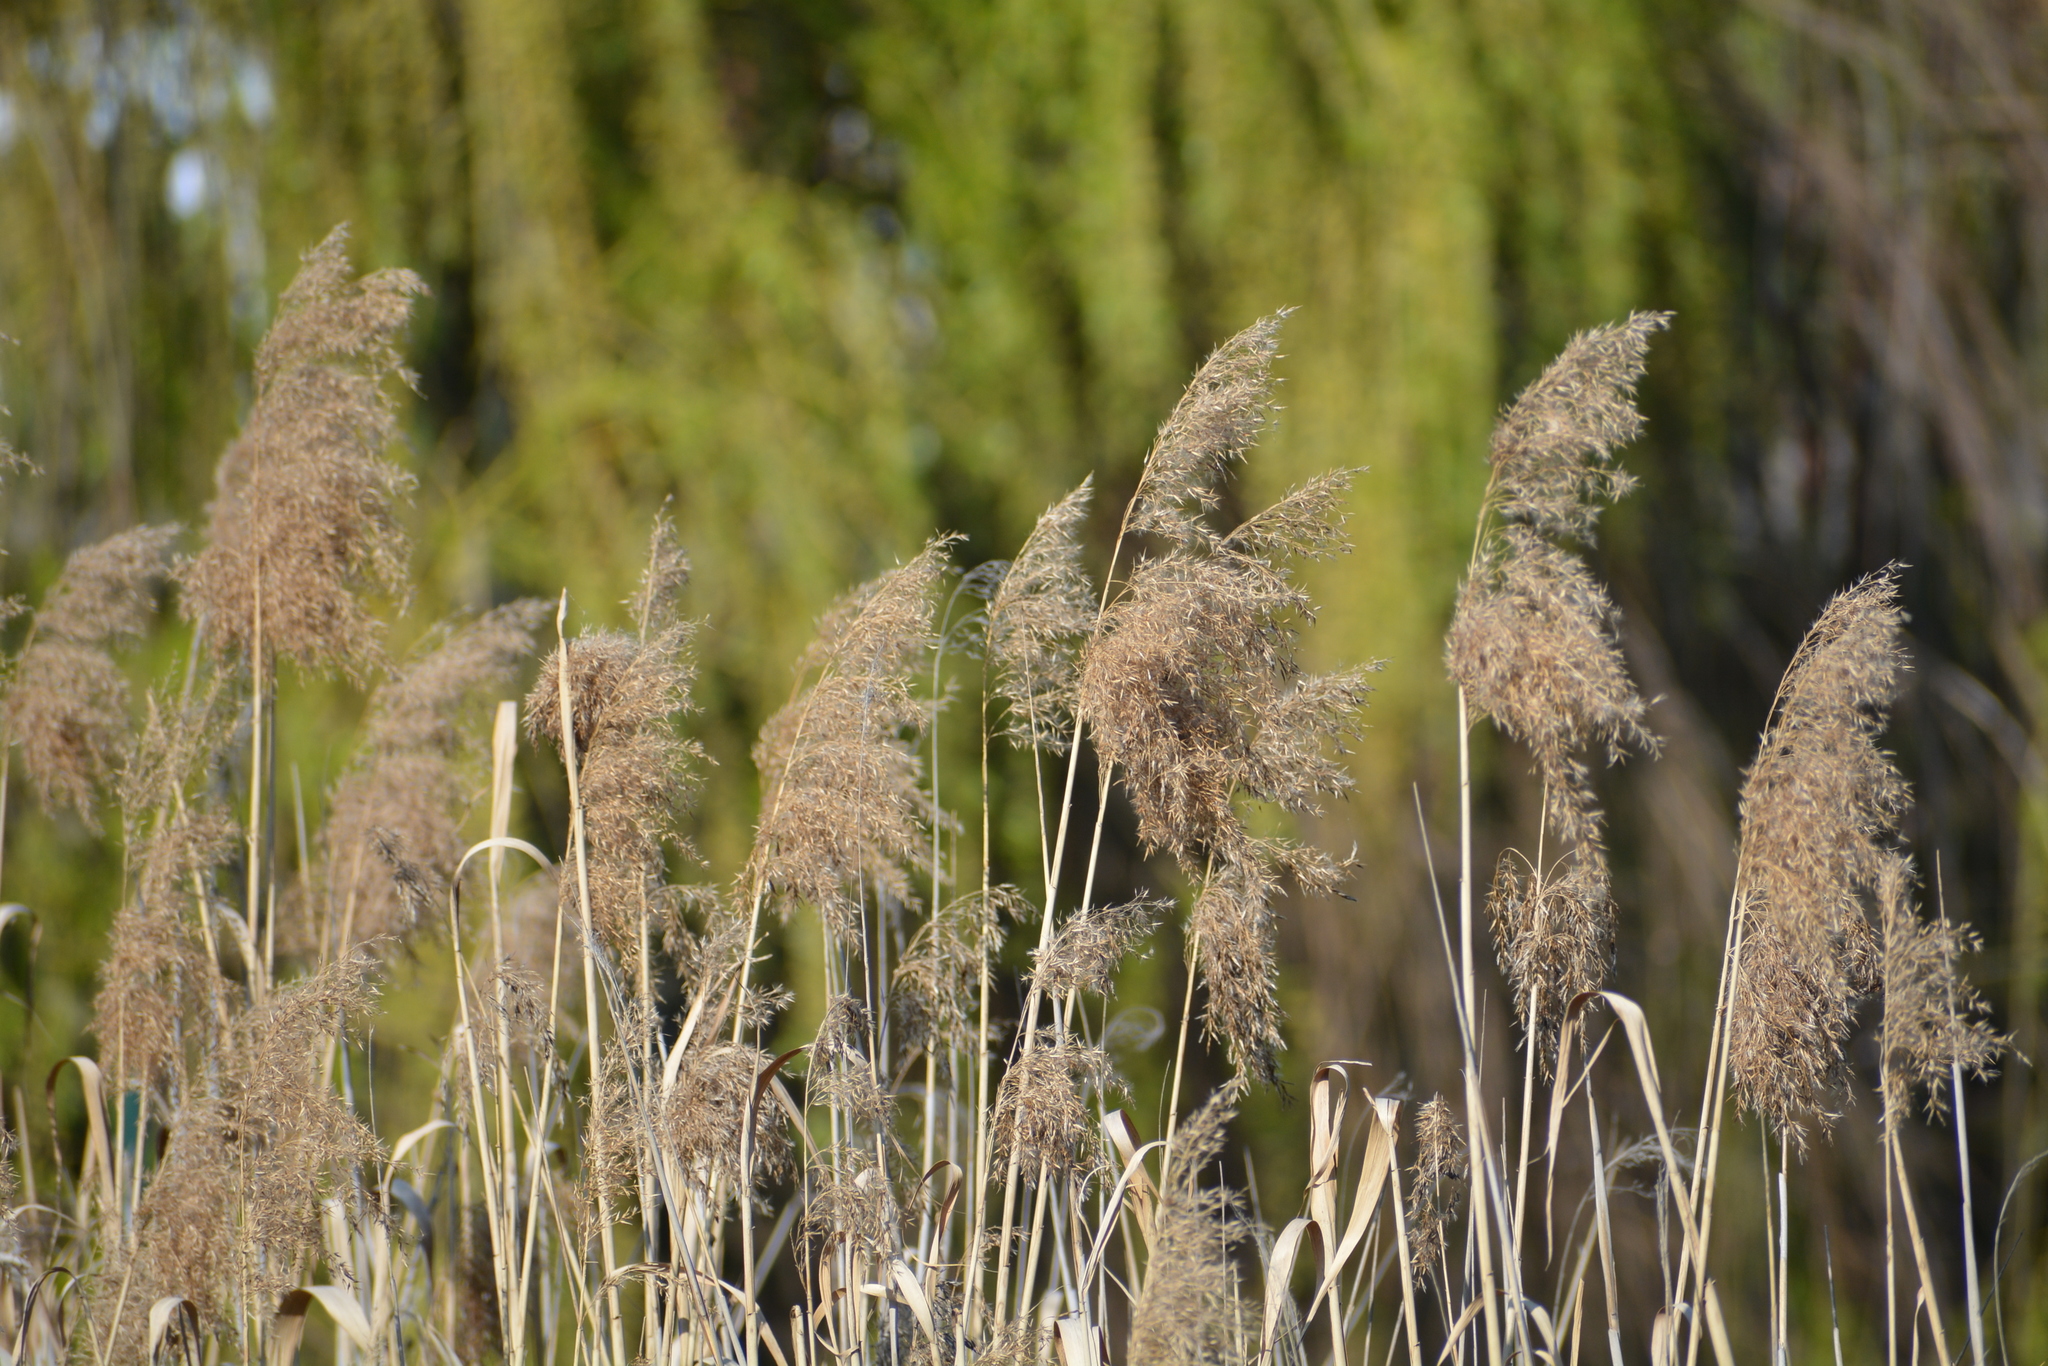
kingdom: Plantae
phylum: Tracheophyta
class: Liliopsida
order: Poales
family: Poaceae
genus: Phragmites
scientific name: Phragmites australis
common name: Common reed
